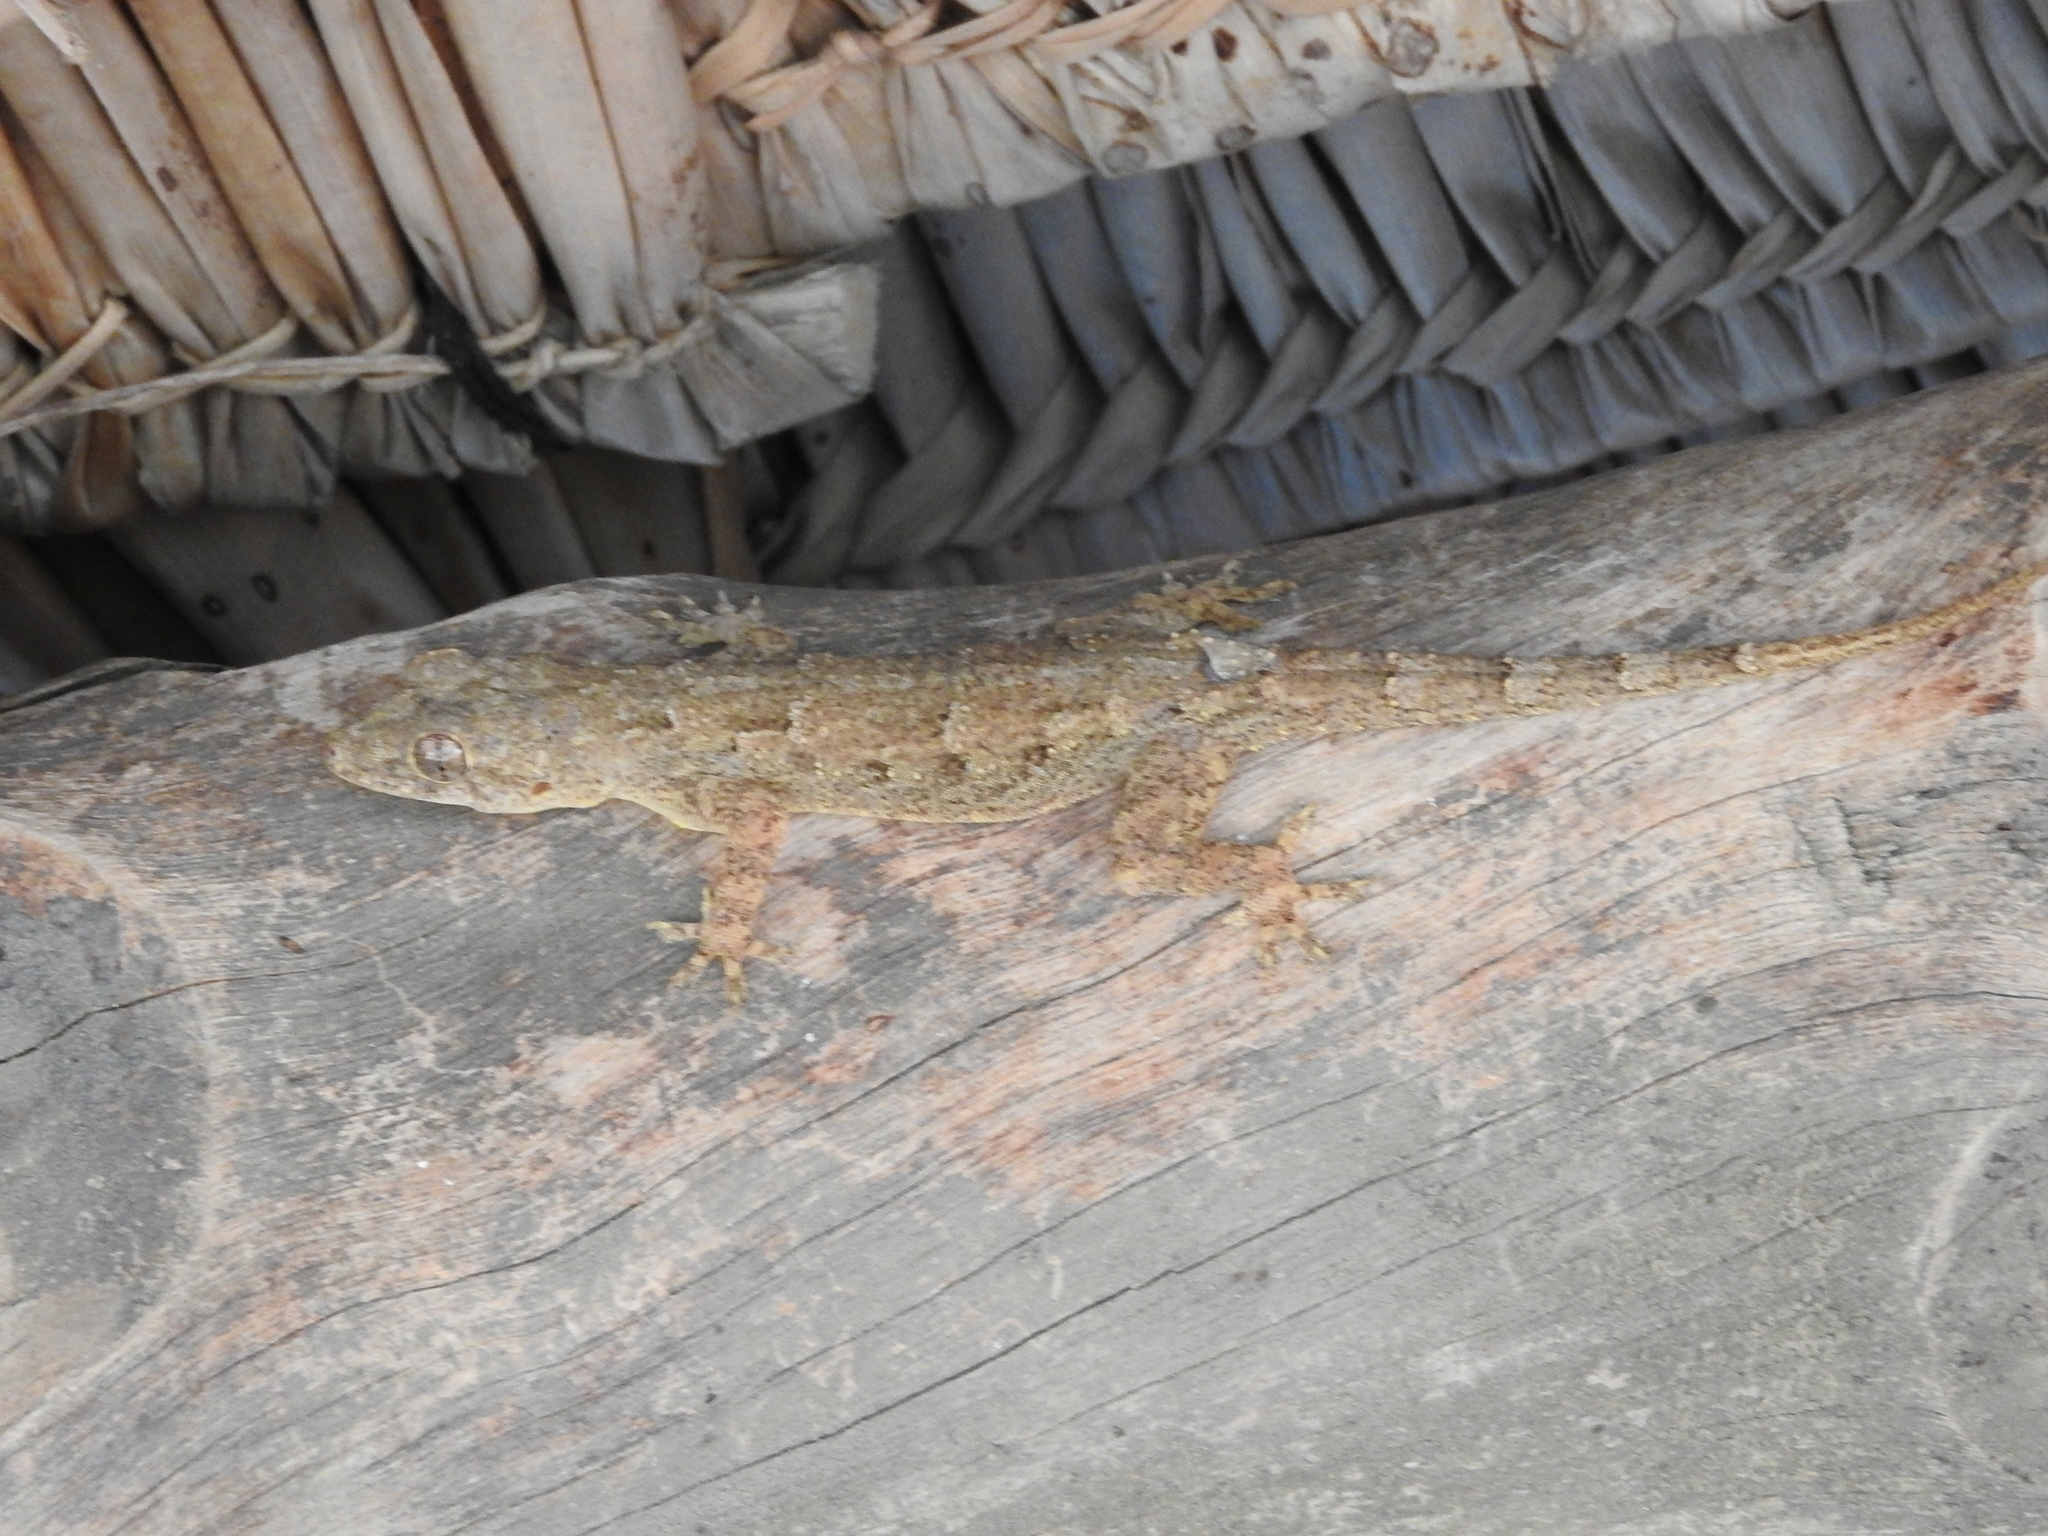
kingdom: Animalia
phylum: Chordata
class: Squamata
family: Gekkonidae
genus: Hemidactylus
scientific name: Hemidactylus platycephalus
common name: Baobab gecko
